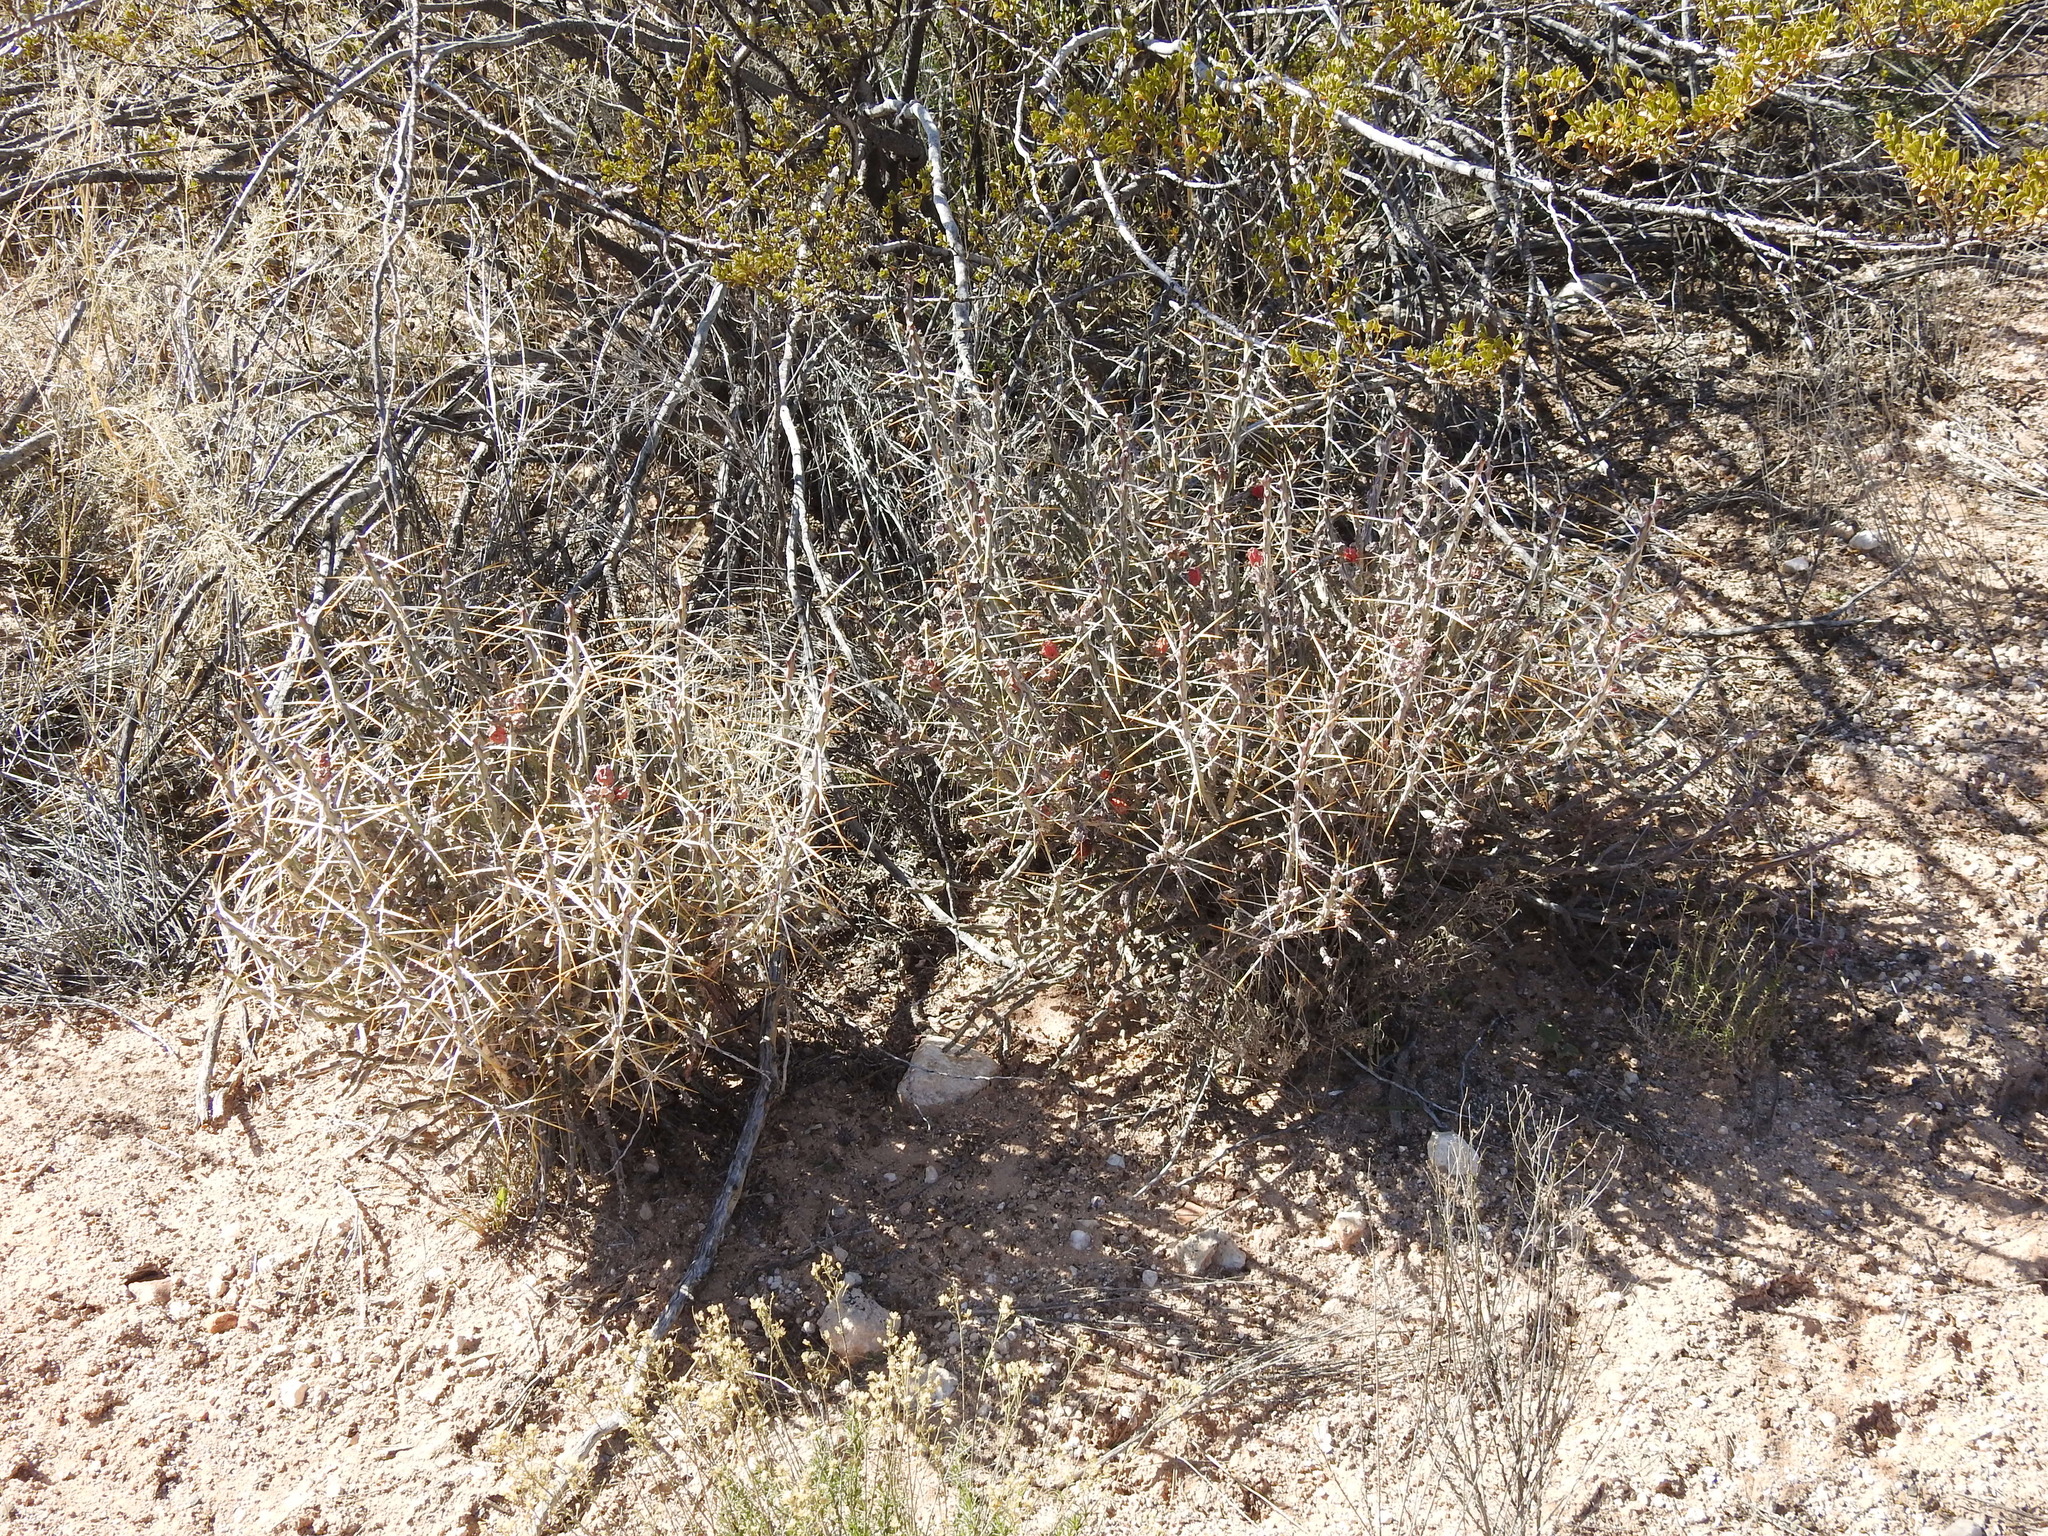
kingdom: Plantae
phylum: Tracheophyta
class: Magnoliopsida
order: Caryophyllales
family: Cactaceae
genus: Cylindropuntia
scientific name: Cylindropuntia leptocaulis
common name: Christmas cactus
